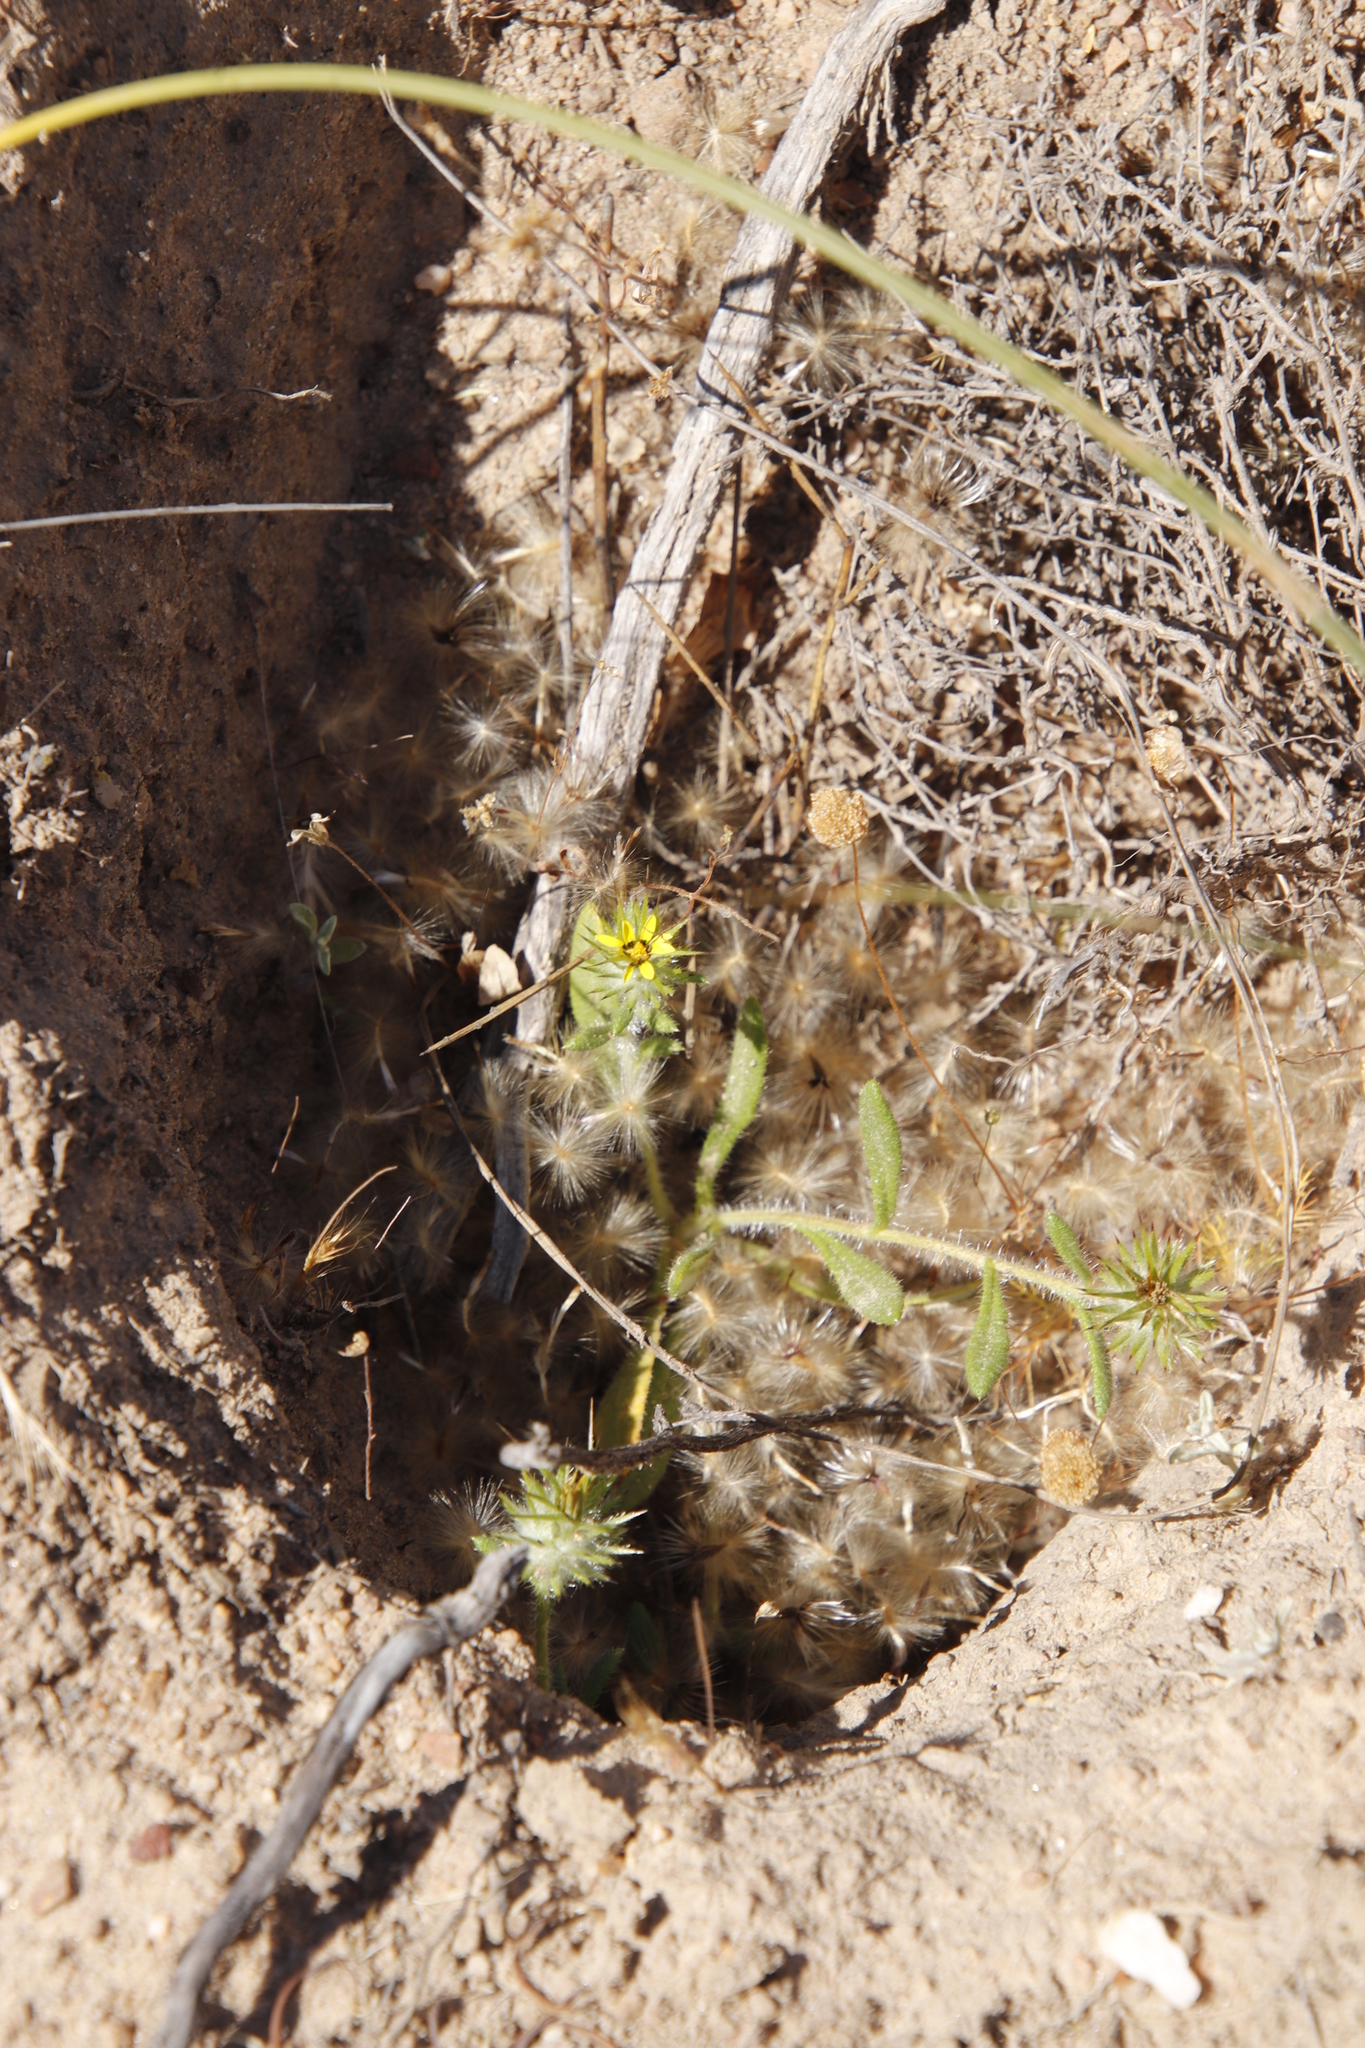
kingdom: Plantae
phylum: Tracheophyta
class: Magnoliopsida
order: Asterales
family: Asteraceae
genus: Gorteria
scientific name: Gorteria personata
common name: Gorteria
